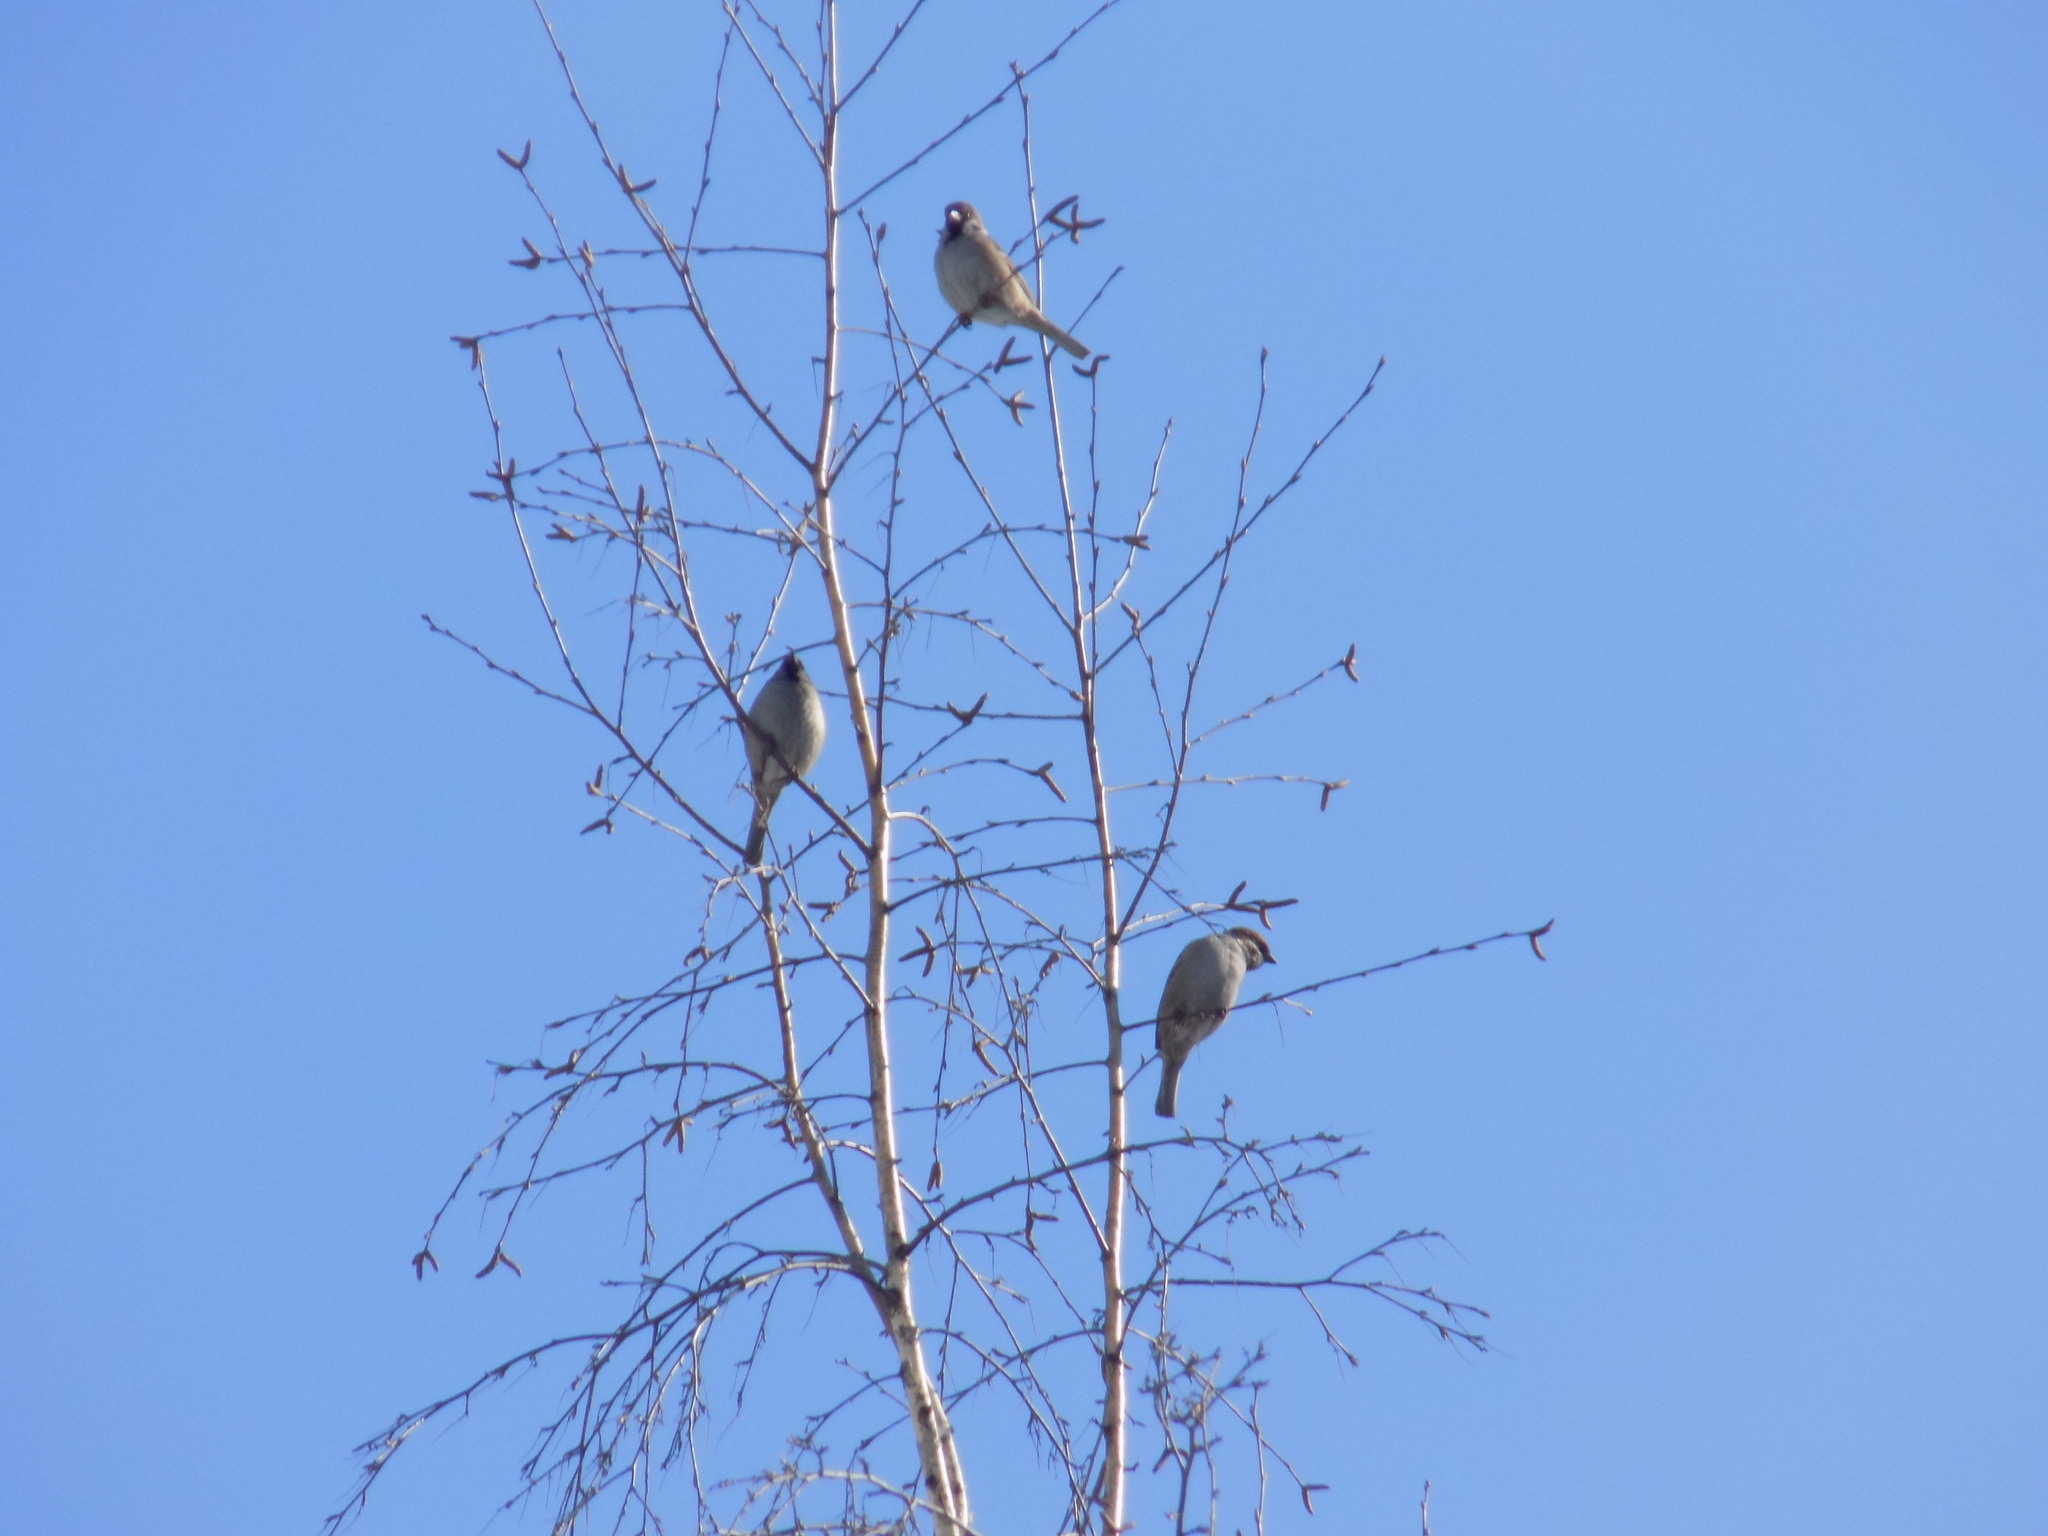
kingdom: Animalia
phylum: Chordata
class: Aves
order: Passeriformes
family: Passeridae
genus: Passer
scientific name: Passer montanus
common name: Eurasian tree sparrow
